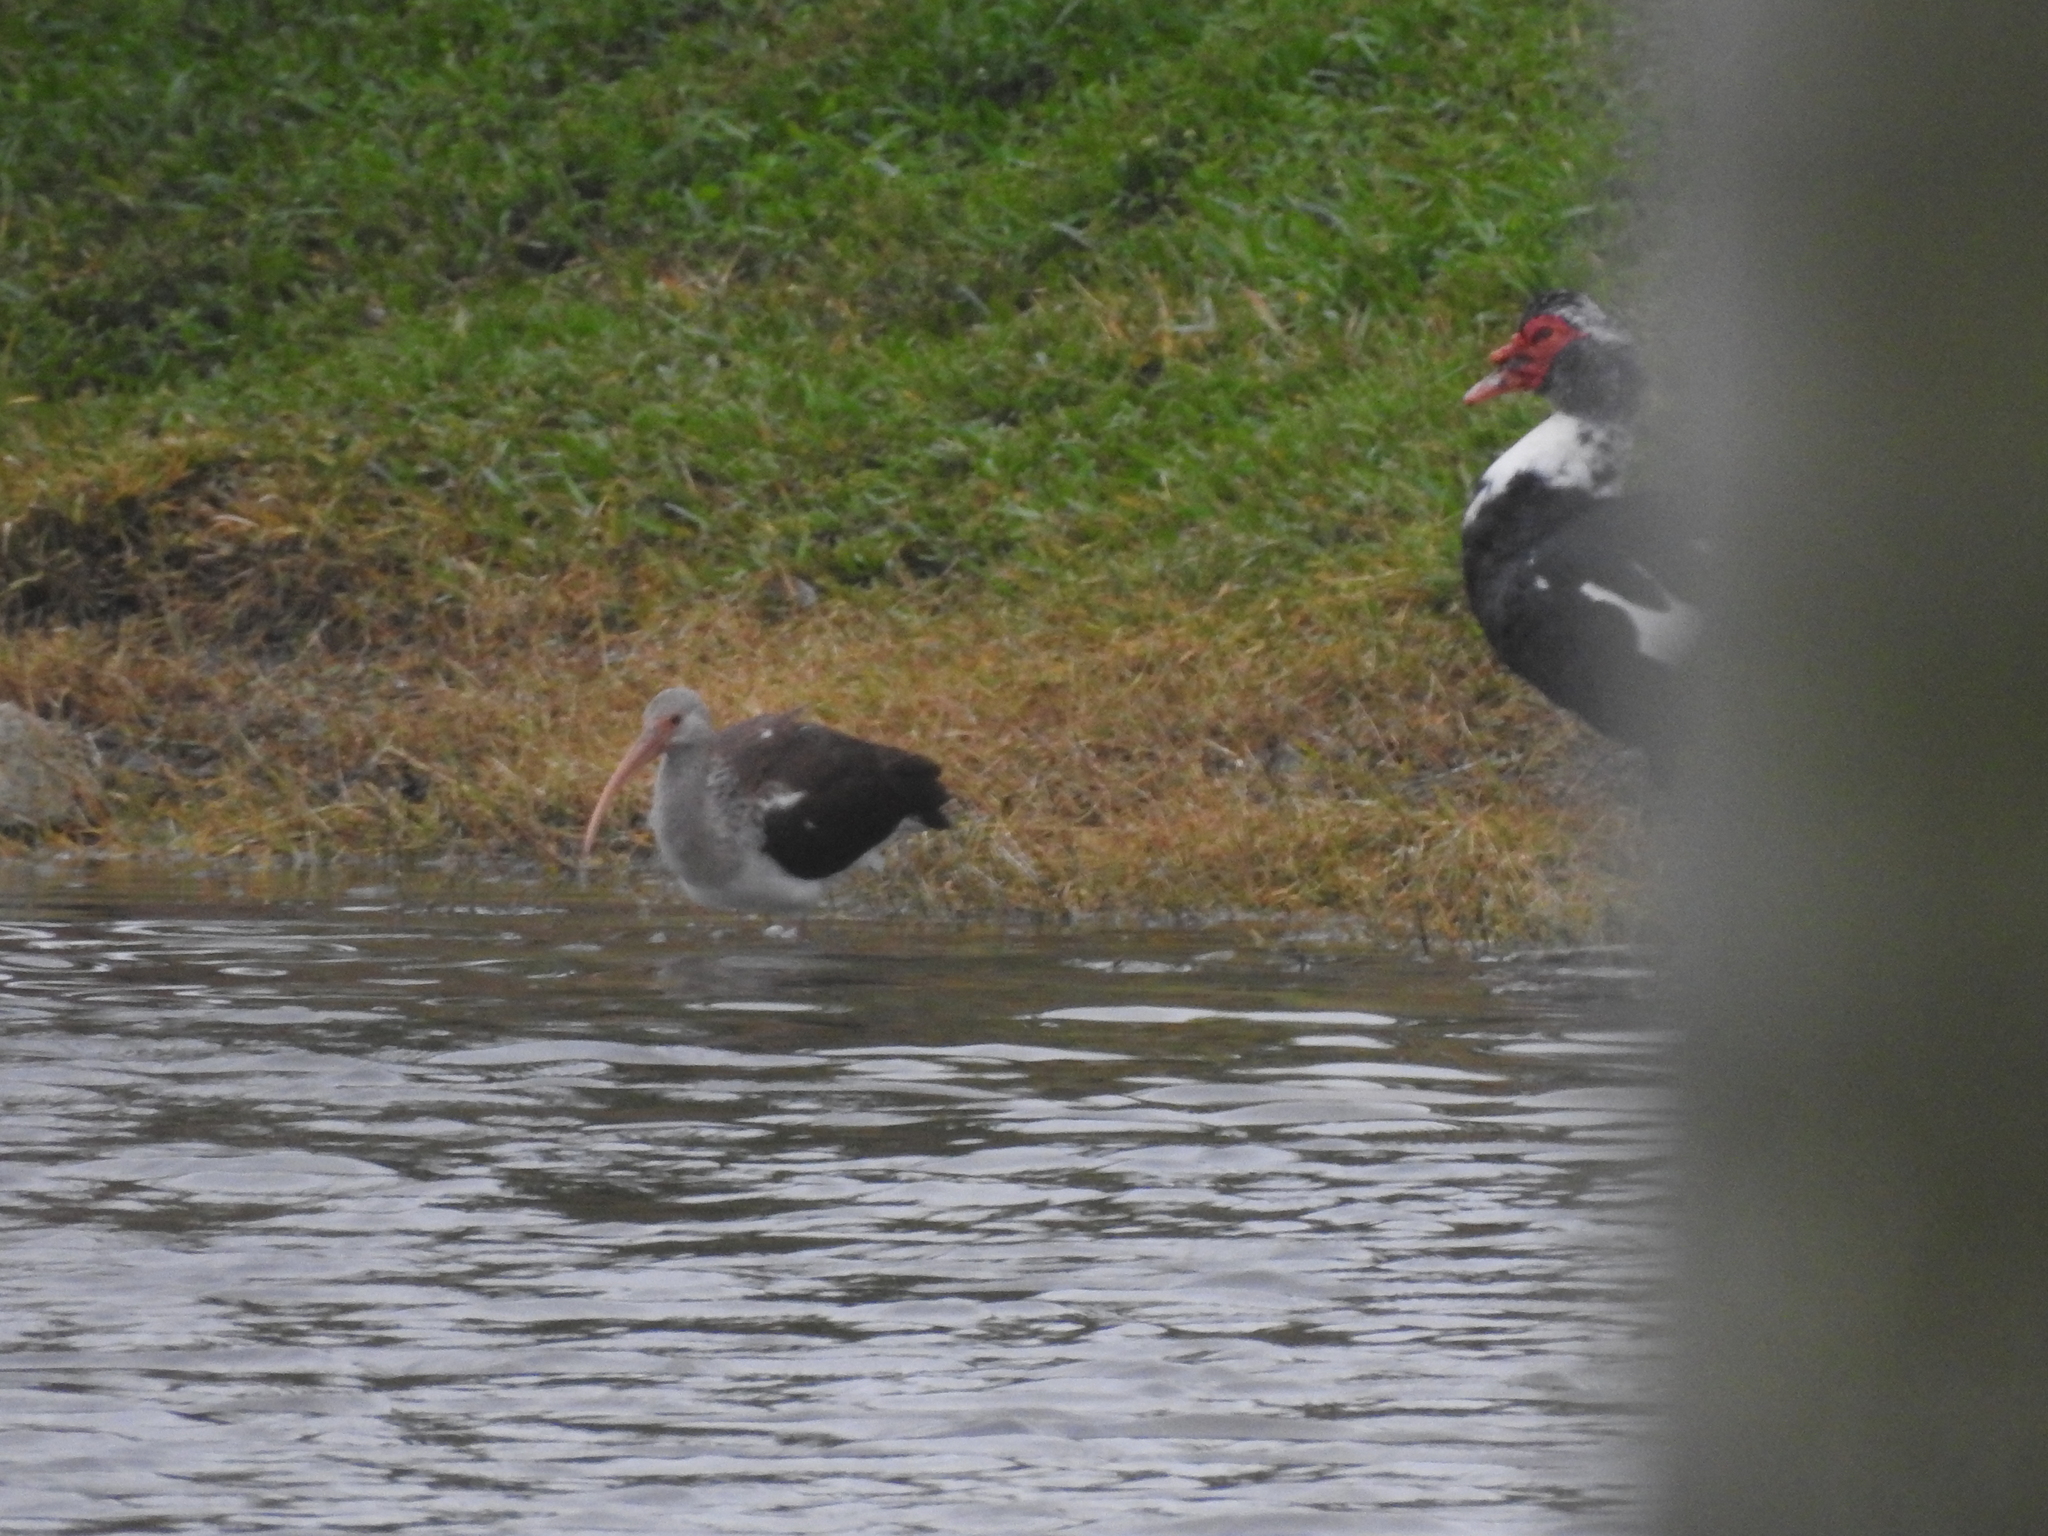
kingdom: Animalia
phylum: Chordata
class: Aves
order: Pelecaniformes
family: Threskiornithidae
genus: Eudocimus
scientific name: Eudocimus albus
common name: White ibis
